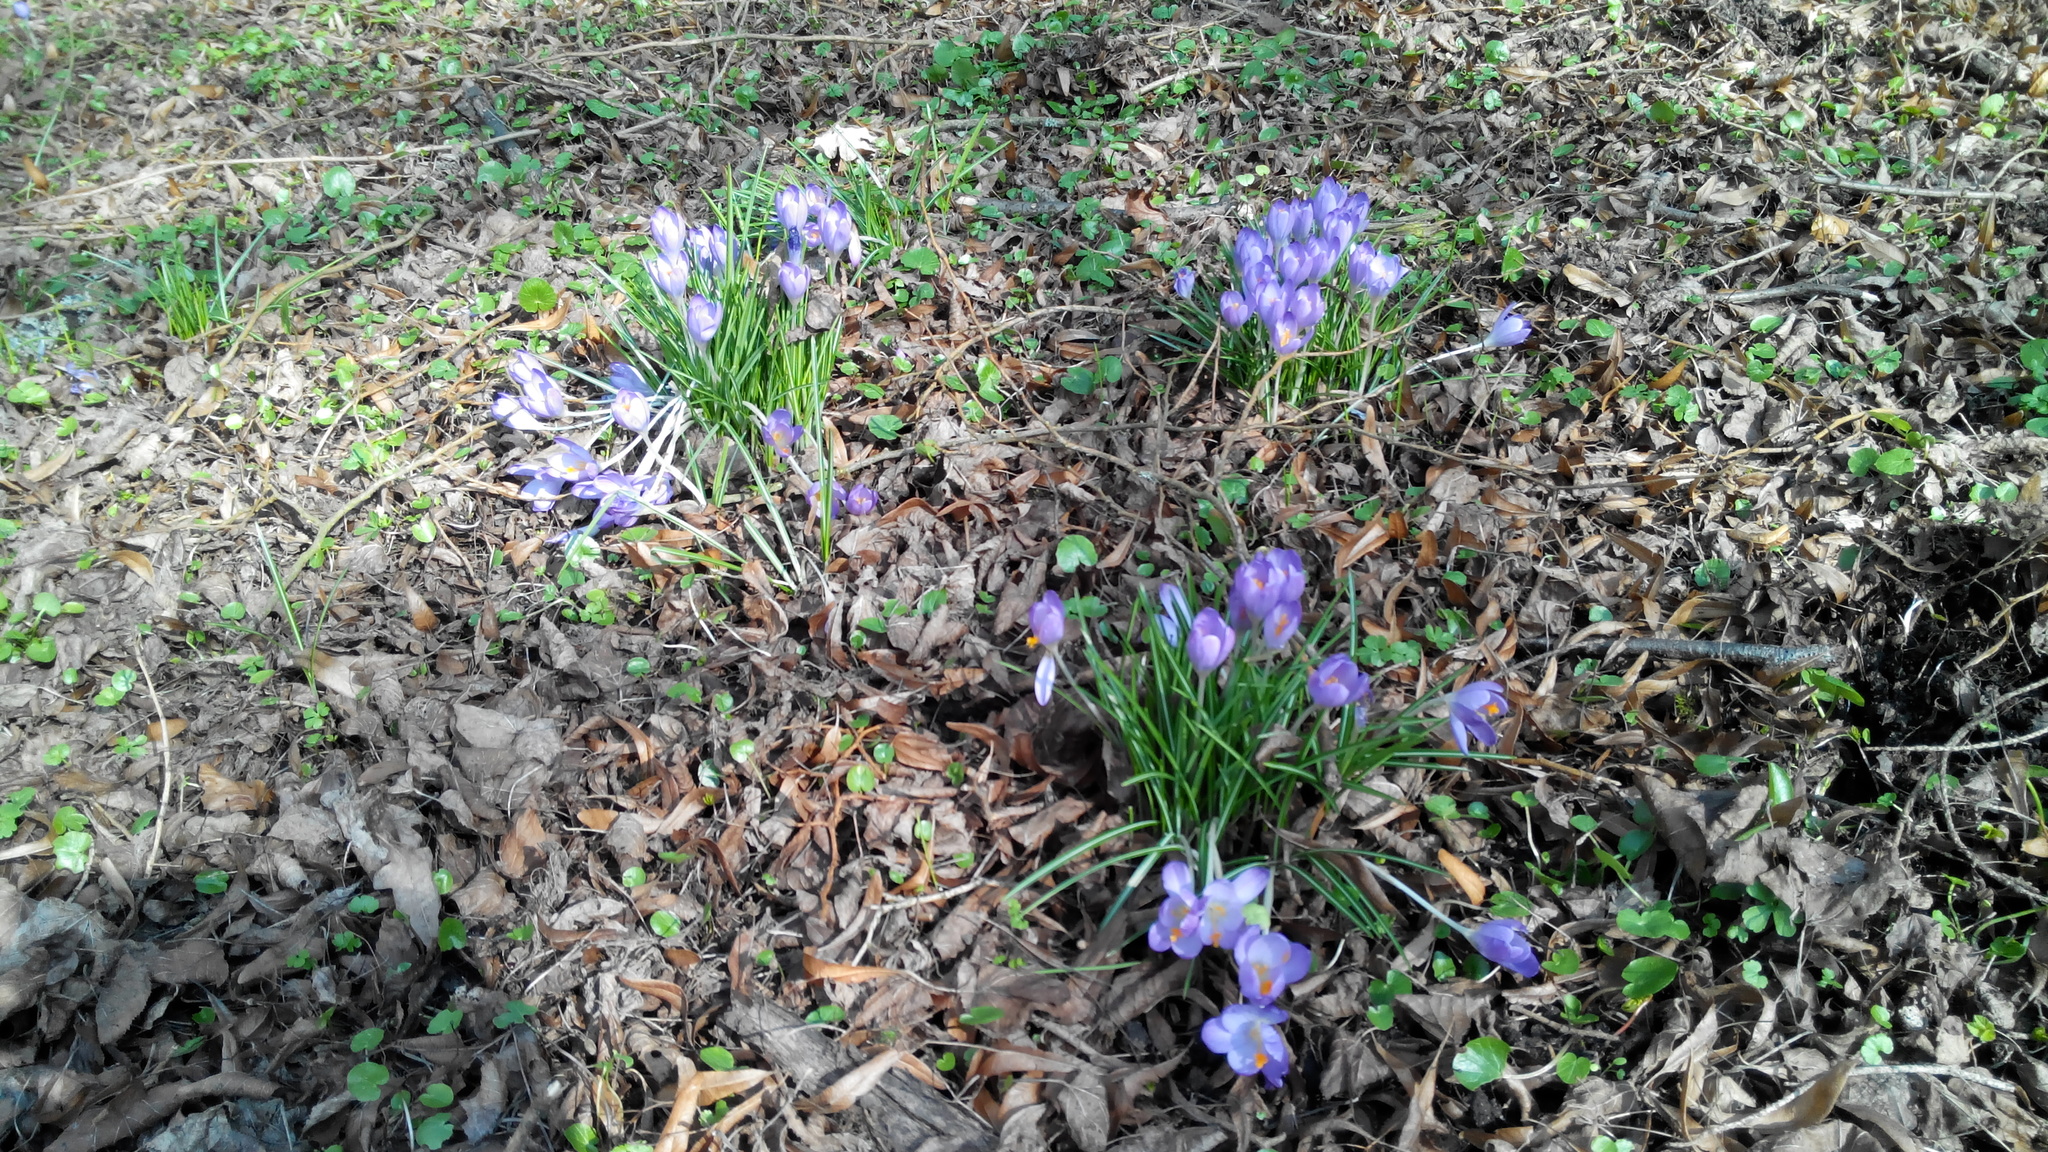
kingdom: Plantae
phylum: Tracheophyta
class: Liliopsida
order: Asparagales
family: Iridaceae
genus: Crocus
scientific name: Crocus tommasinianus
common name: Early crocus
